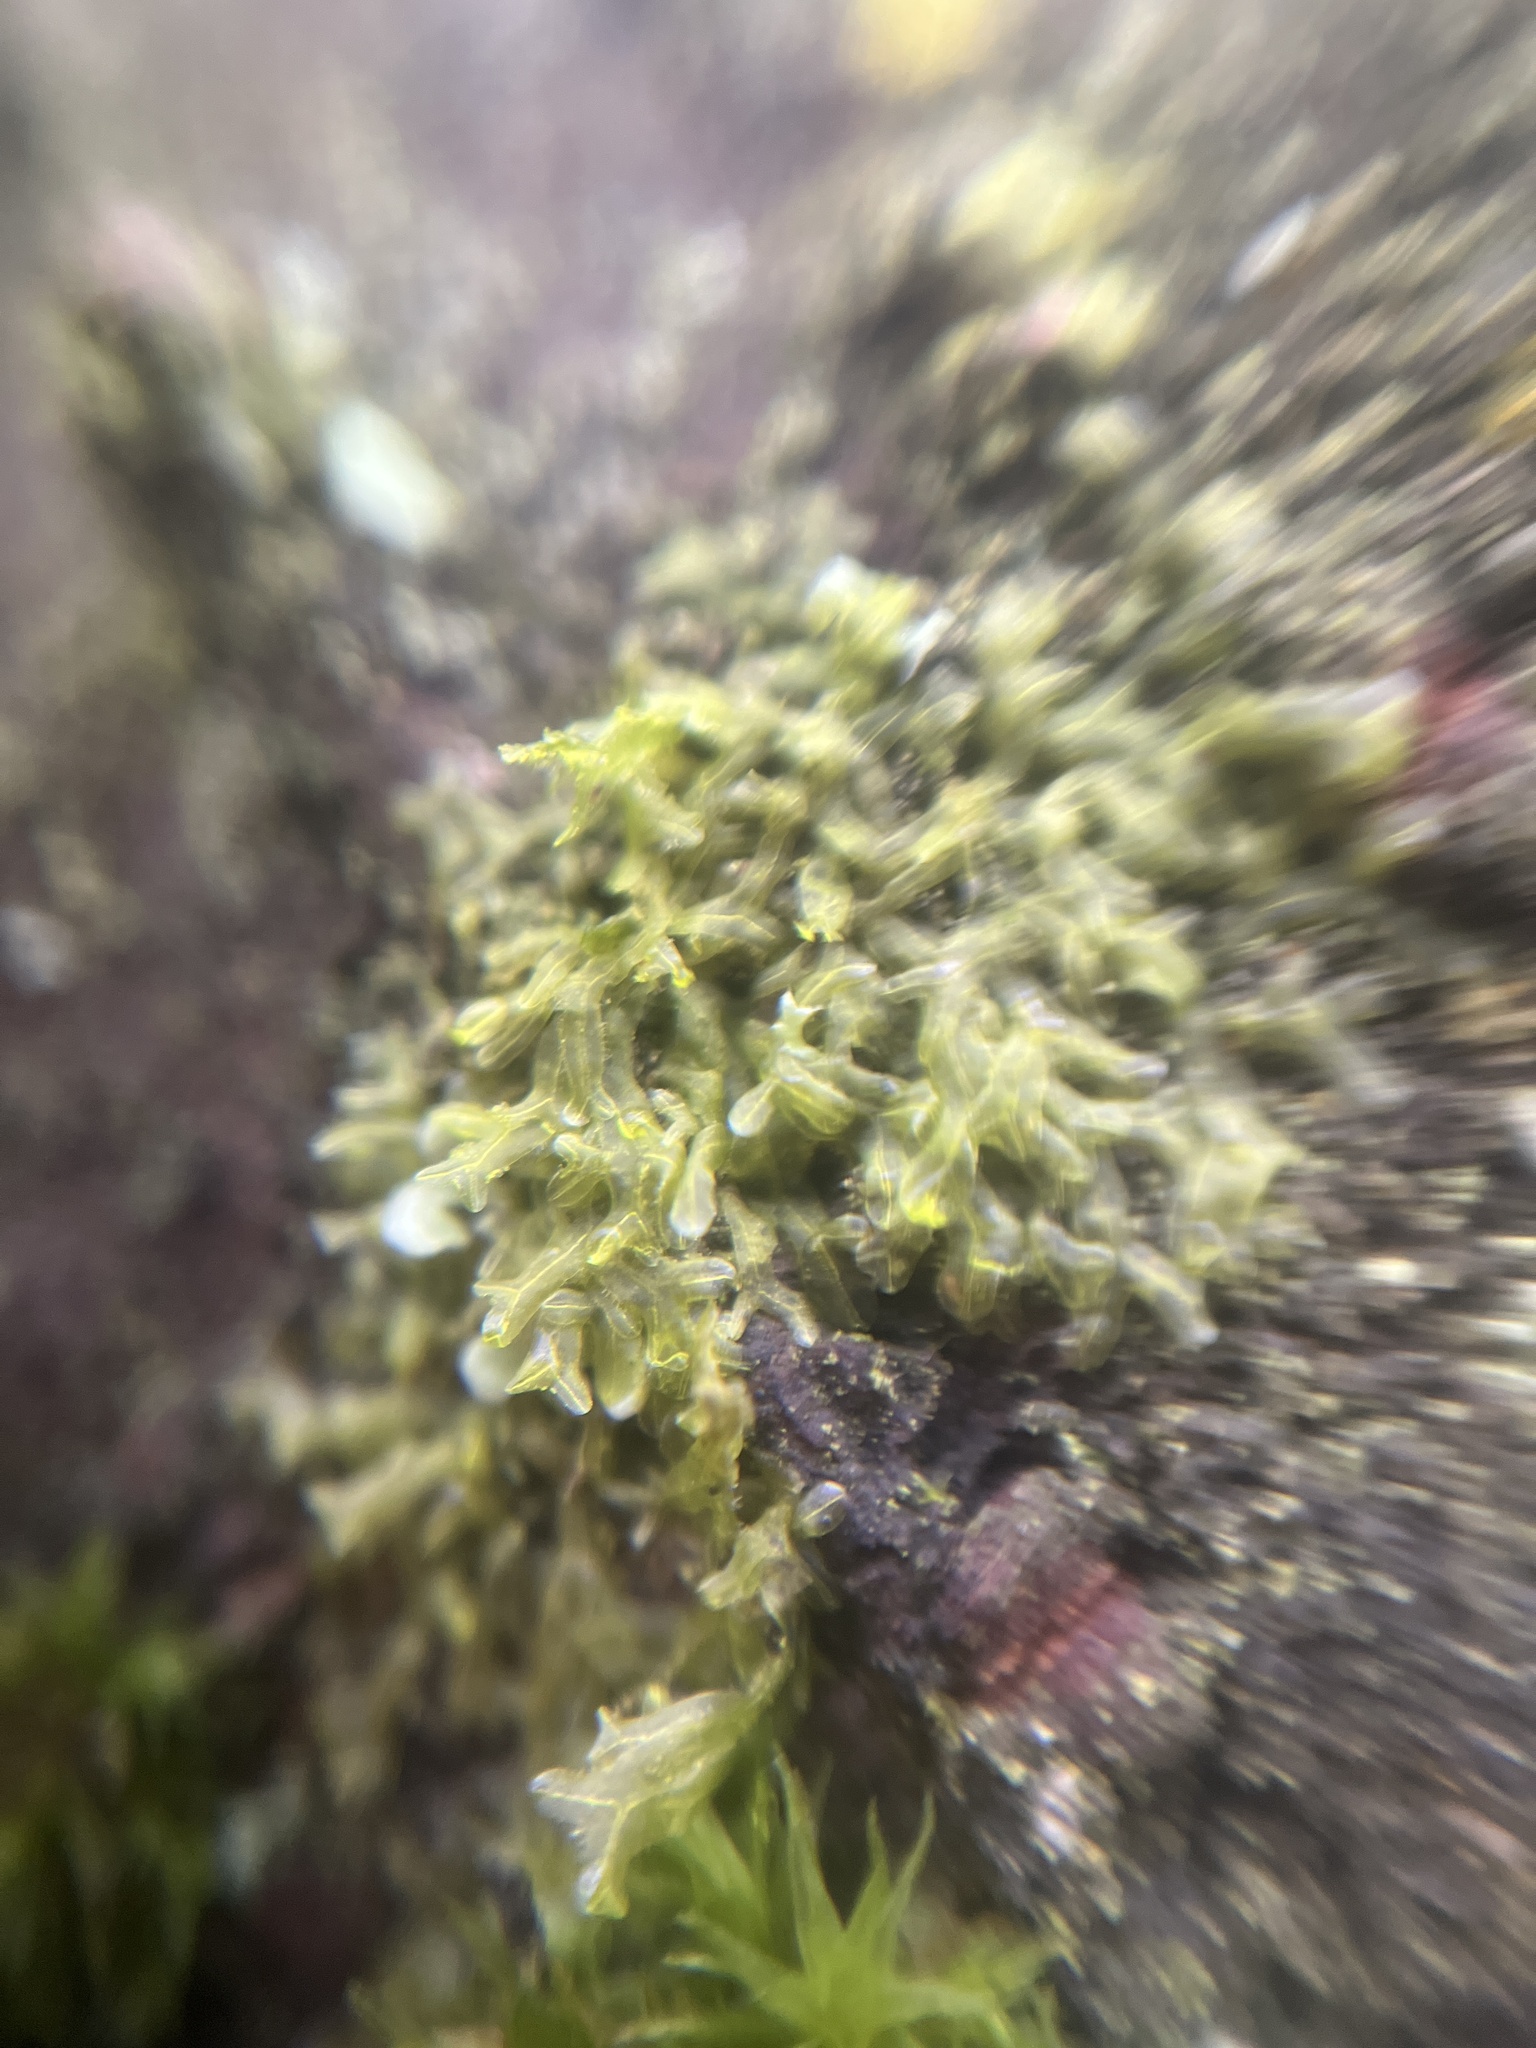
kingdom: Plantae
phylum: Marchantiophyta
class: Jungermanniopsida
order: Metzgeriales
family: Metzgeriaceae
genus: Metzgeria
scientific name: Metzgeria furcata
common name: Forked veilwort
